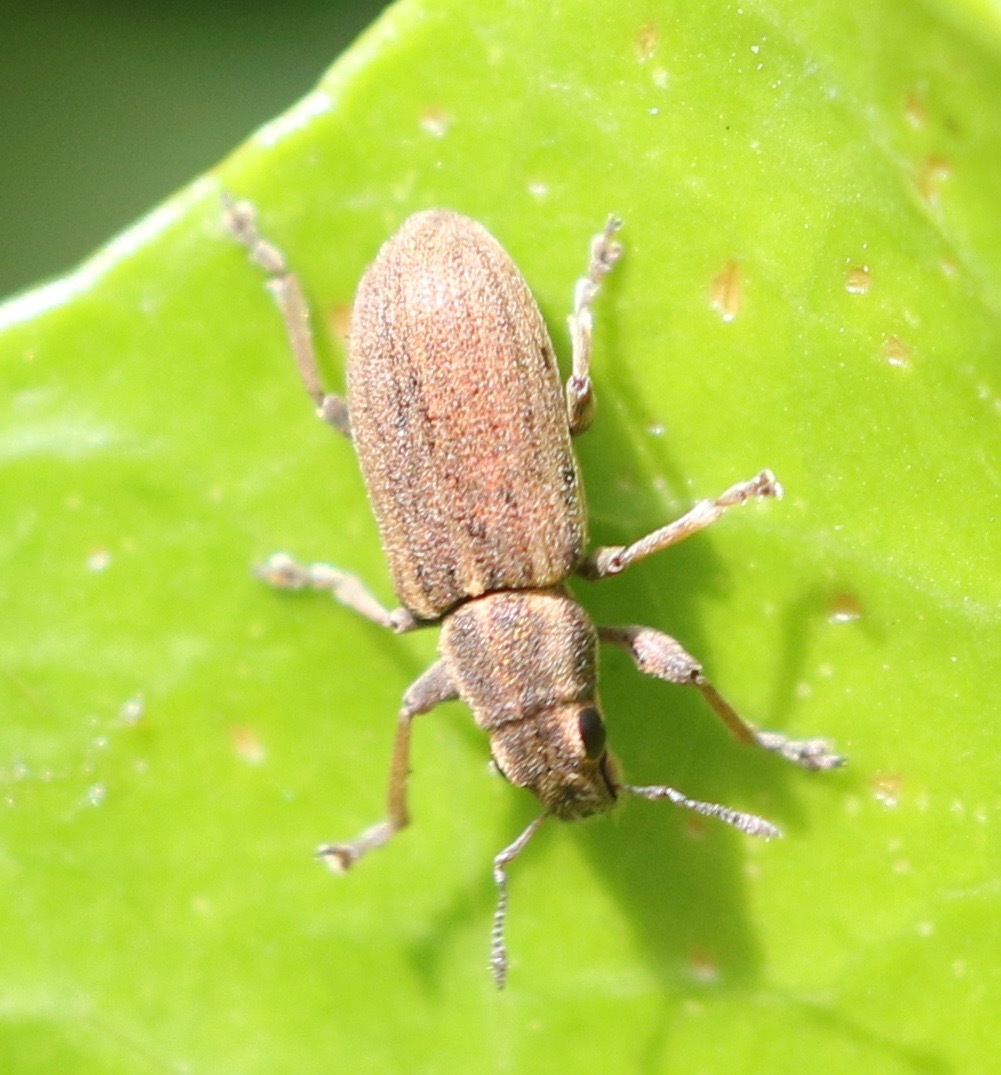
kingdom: Animalia
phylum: Arthropoda
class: Insecta
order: Coleoptera
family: Curculionidae
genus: Sitona
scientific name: Sitona lineatus
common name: Weevil
